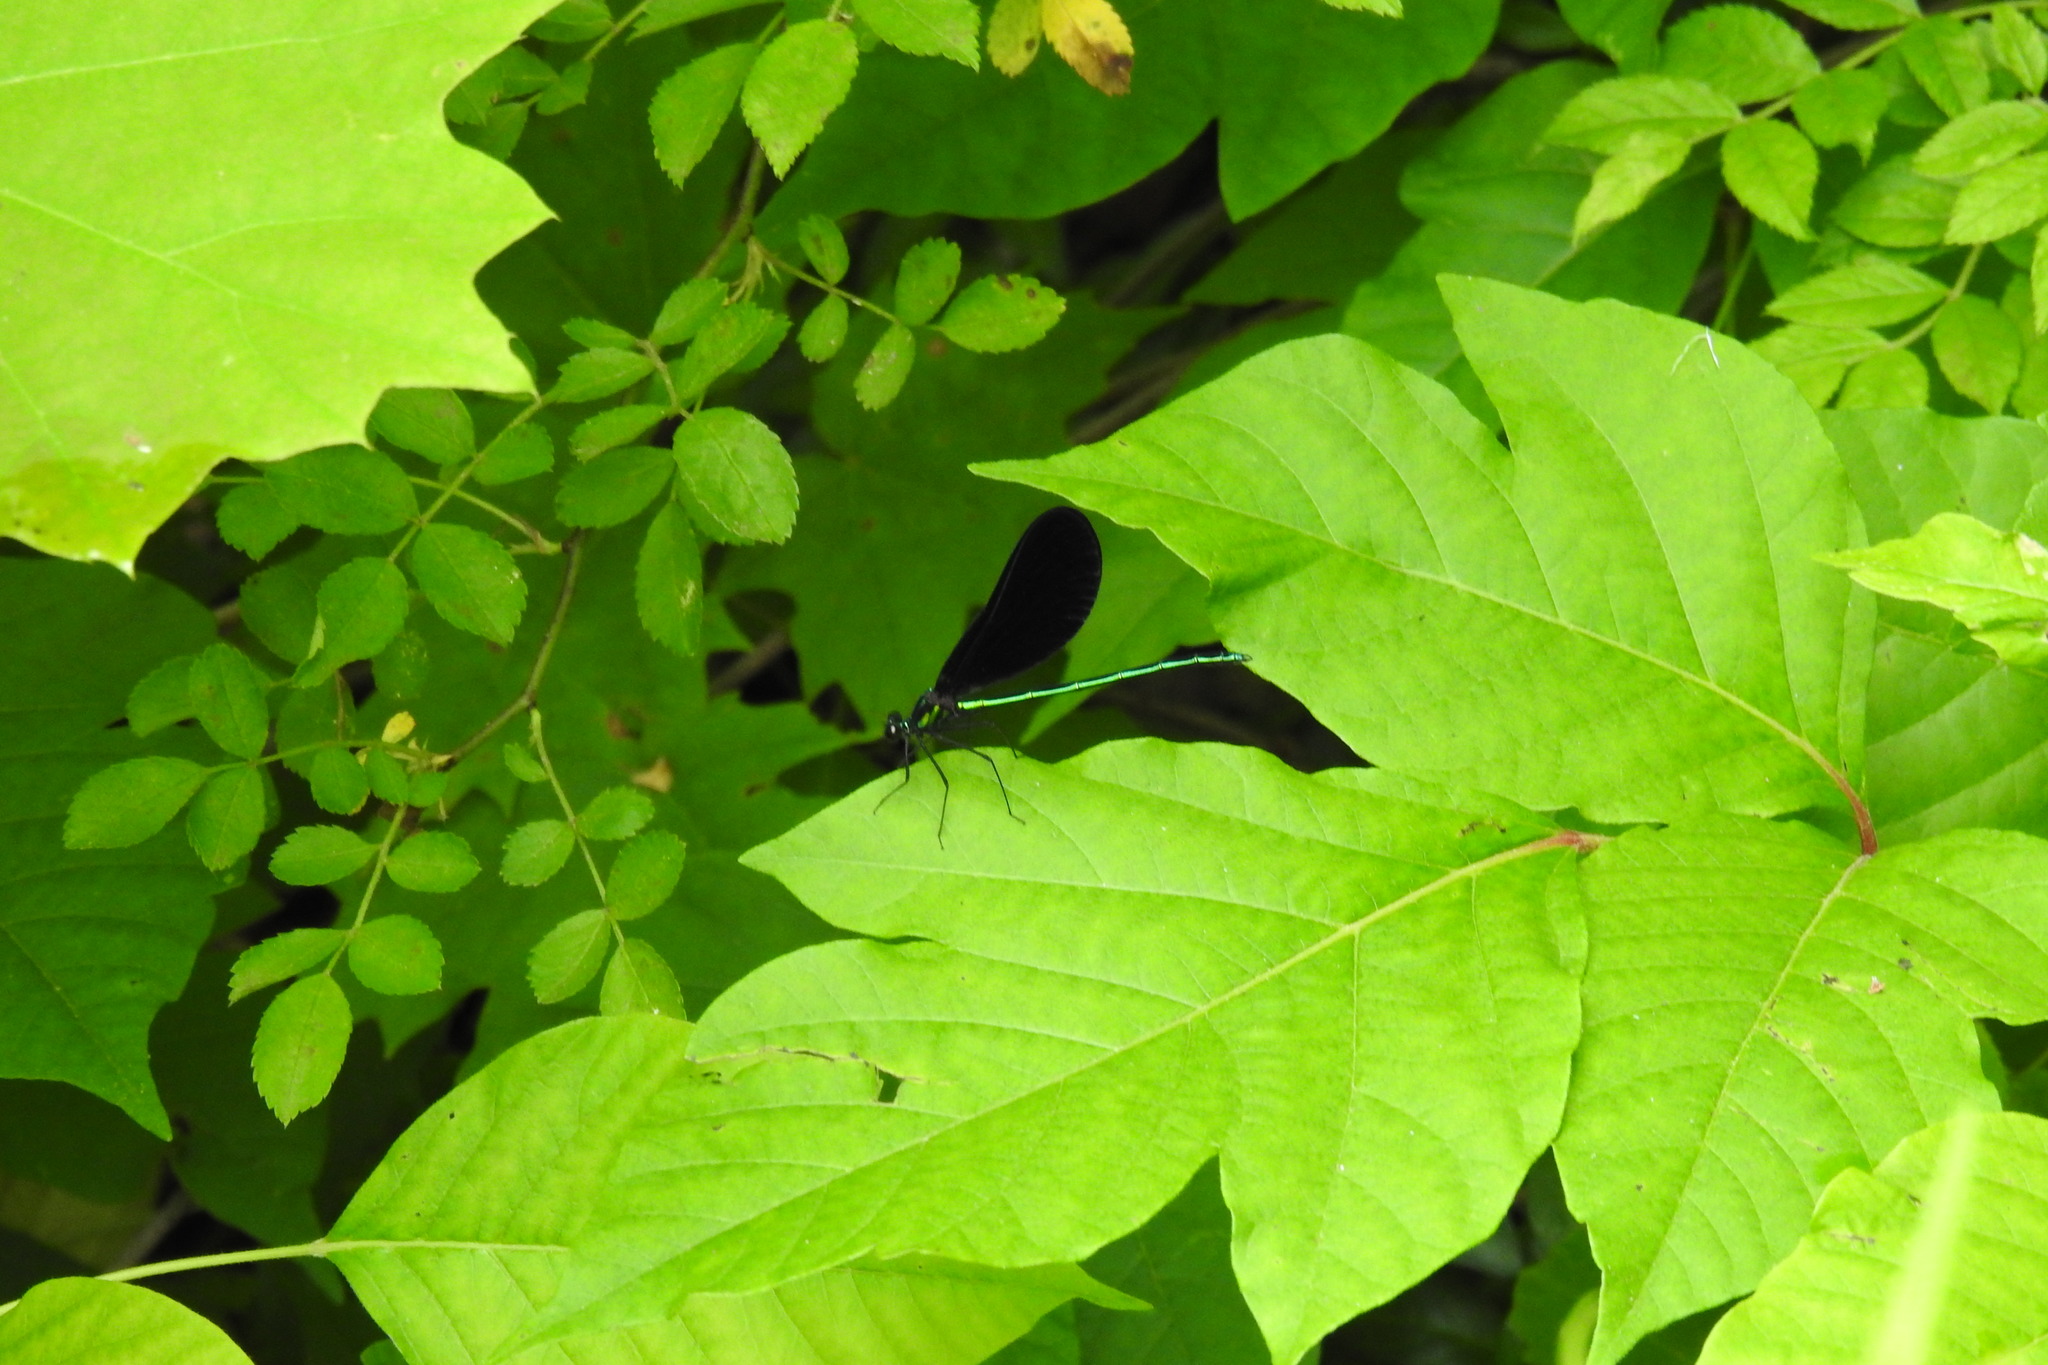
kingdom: Animalia
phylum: Arthropoda
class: Insecta
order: Odonata
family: Calopterygidae
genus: Calopteryx
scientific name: Calopteryx maculata
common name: Ebony jewelwing
